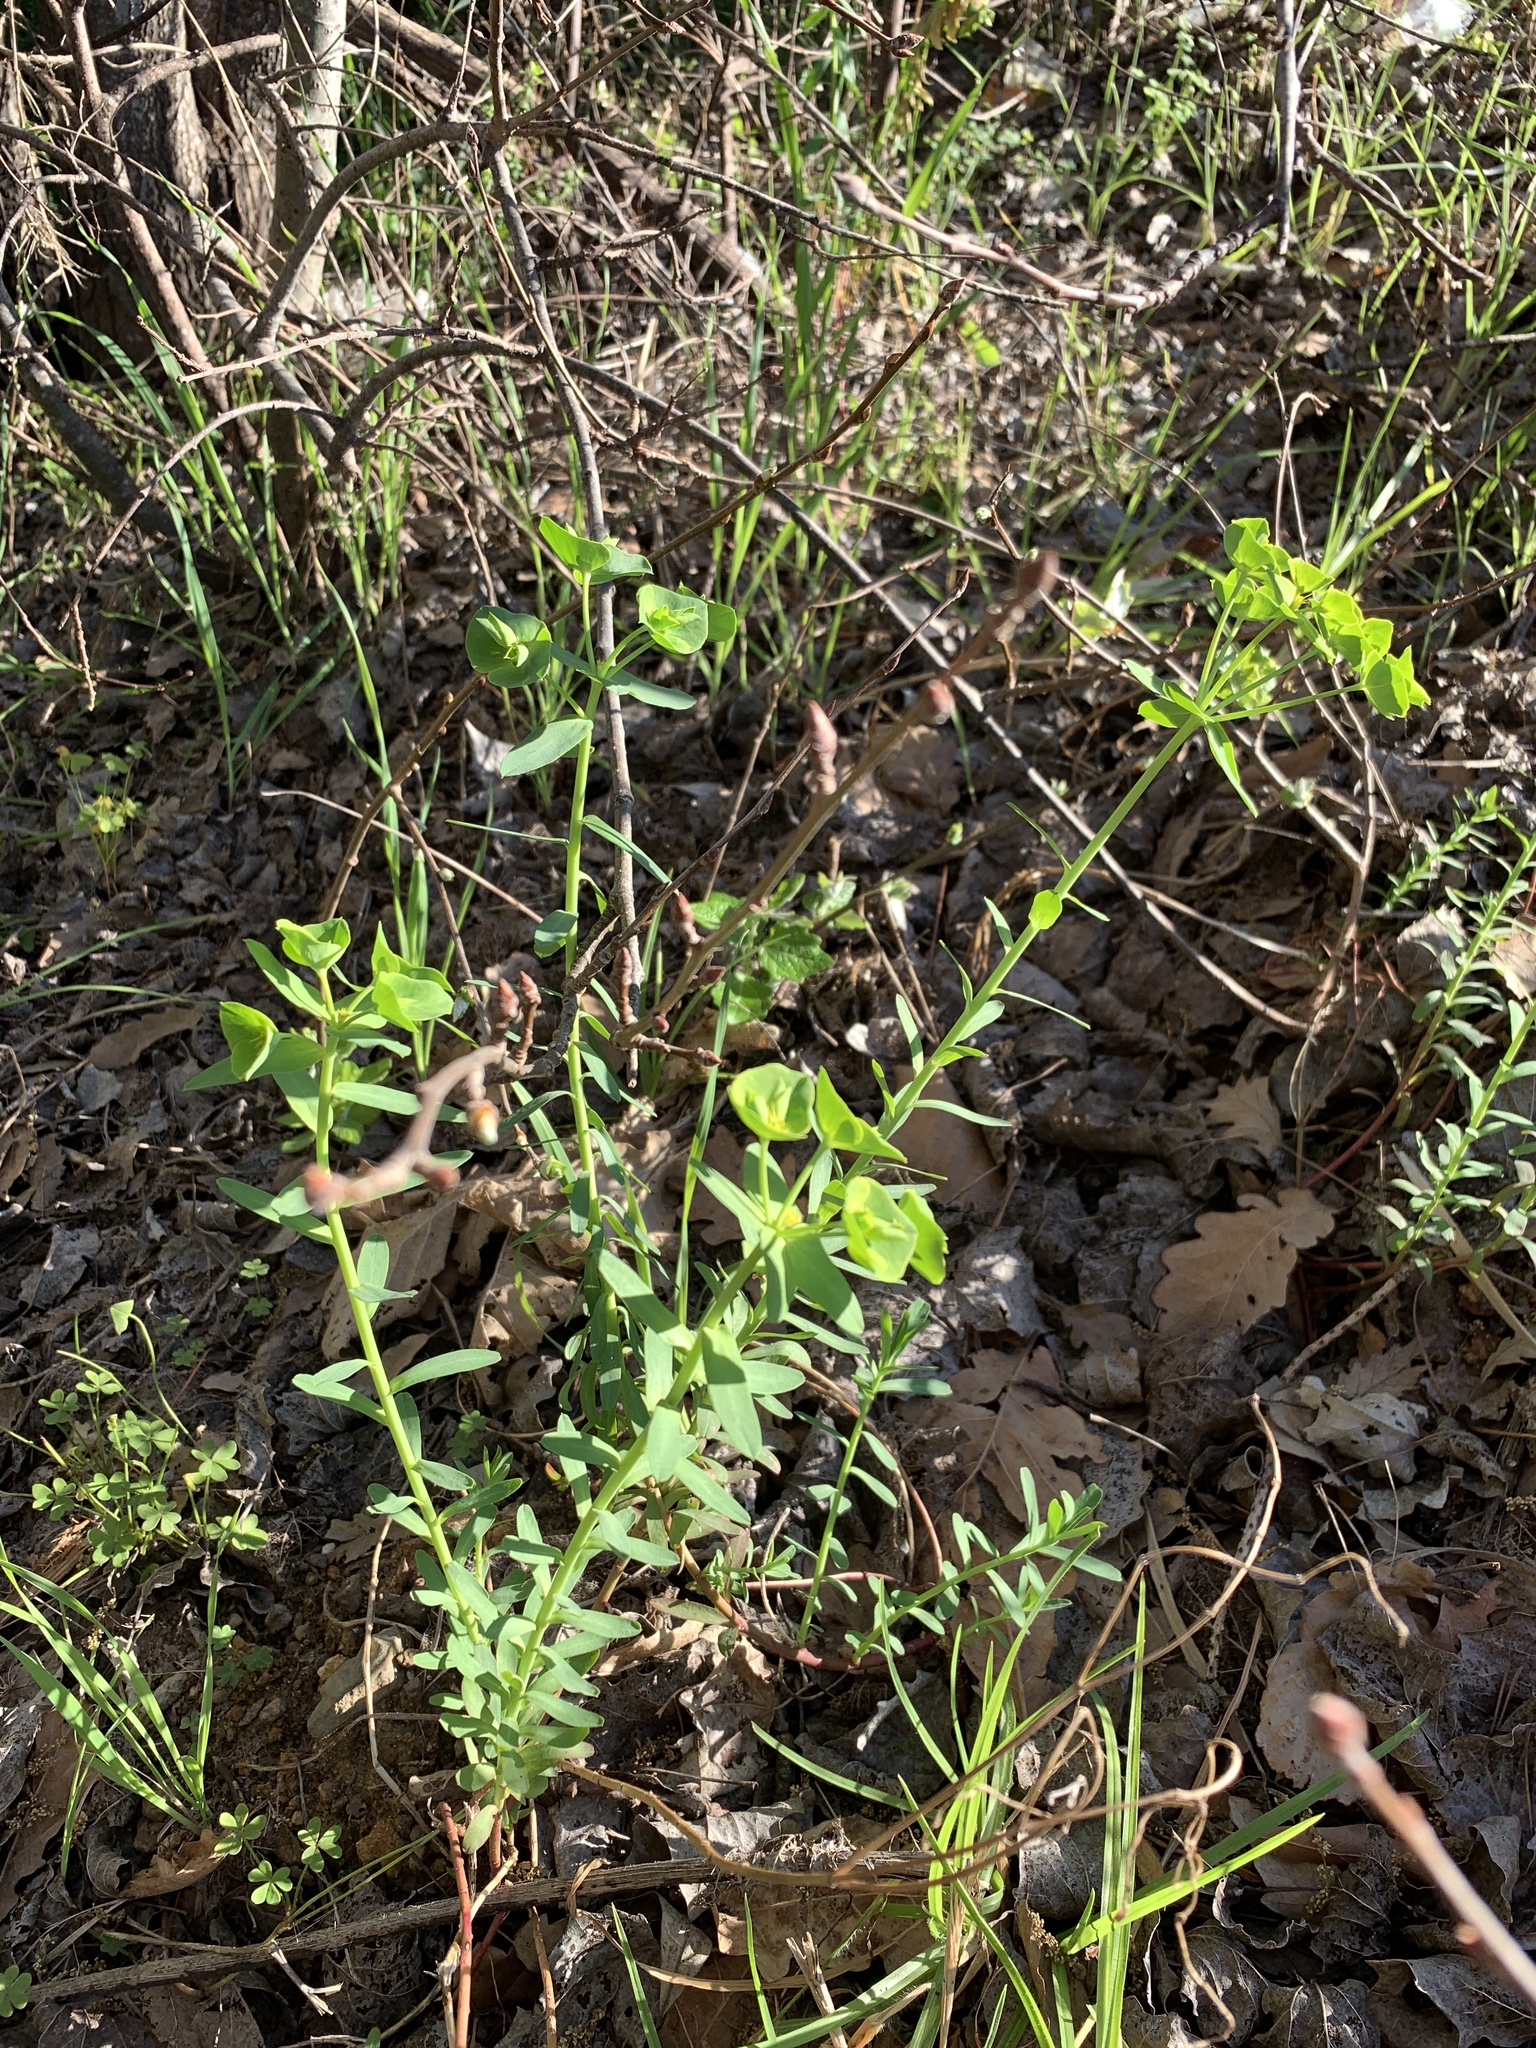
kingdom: Plantae
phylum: Tracheophyta
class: Magnoliopsida
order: Malpighiales
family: Euphorbiaceae
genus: Euphorbia
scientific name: Euphorbia terracina
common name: Geraldton carnation weed
